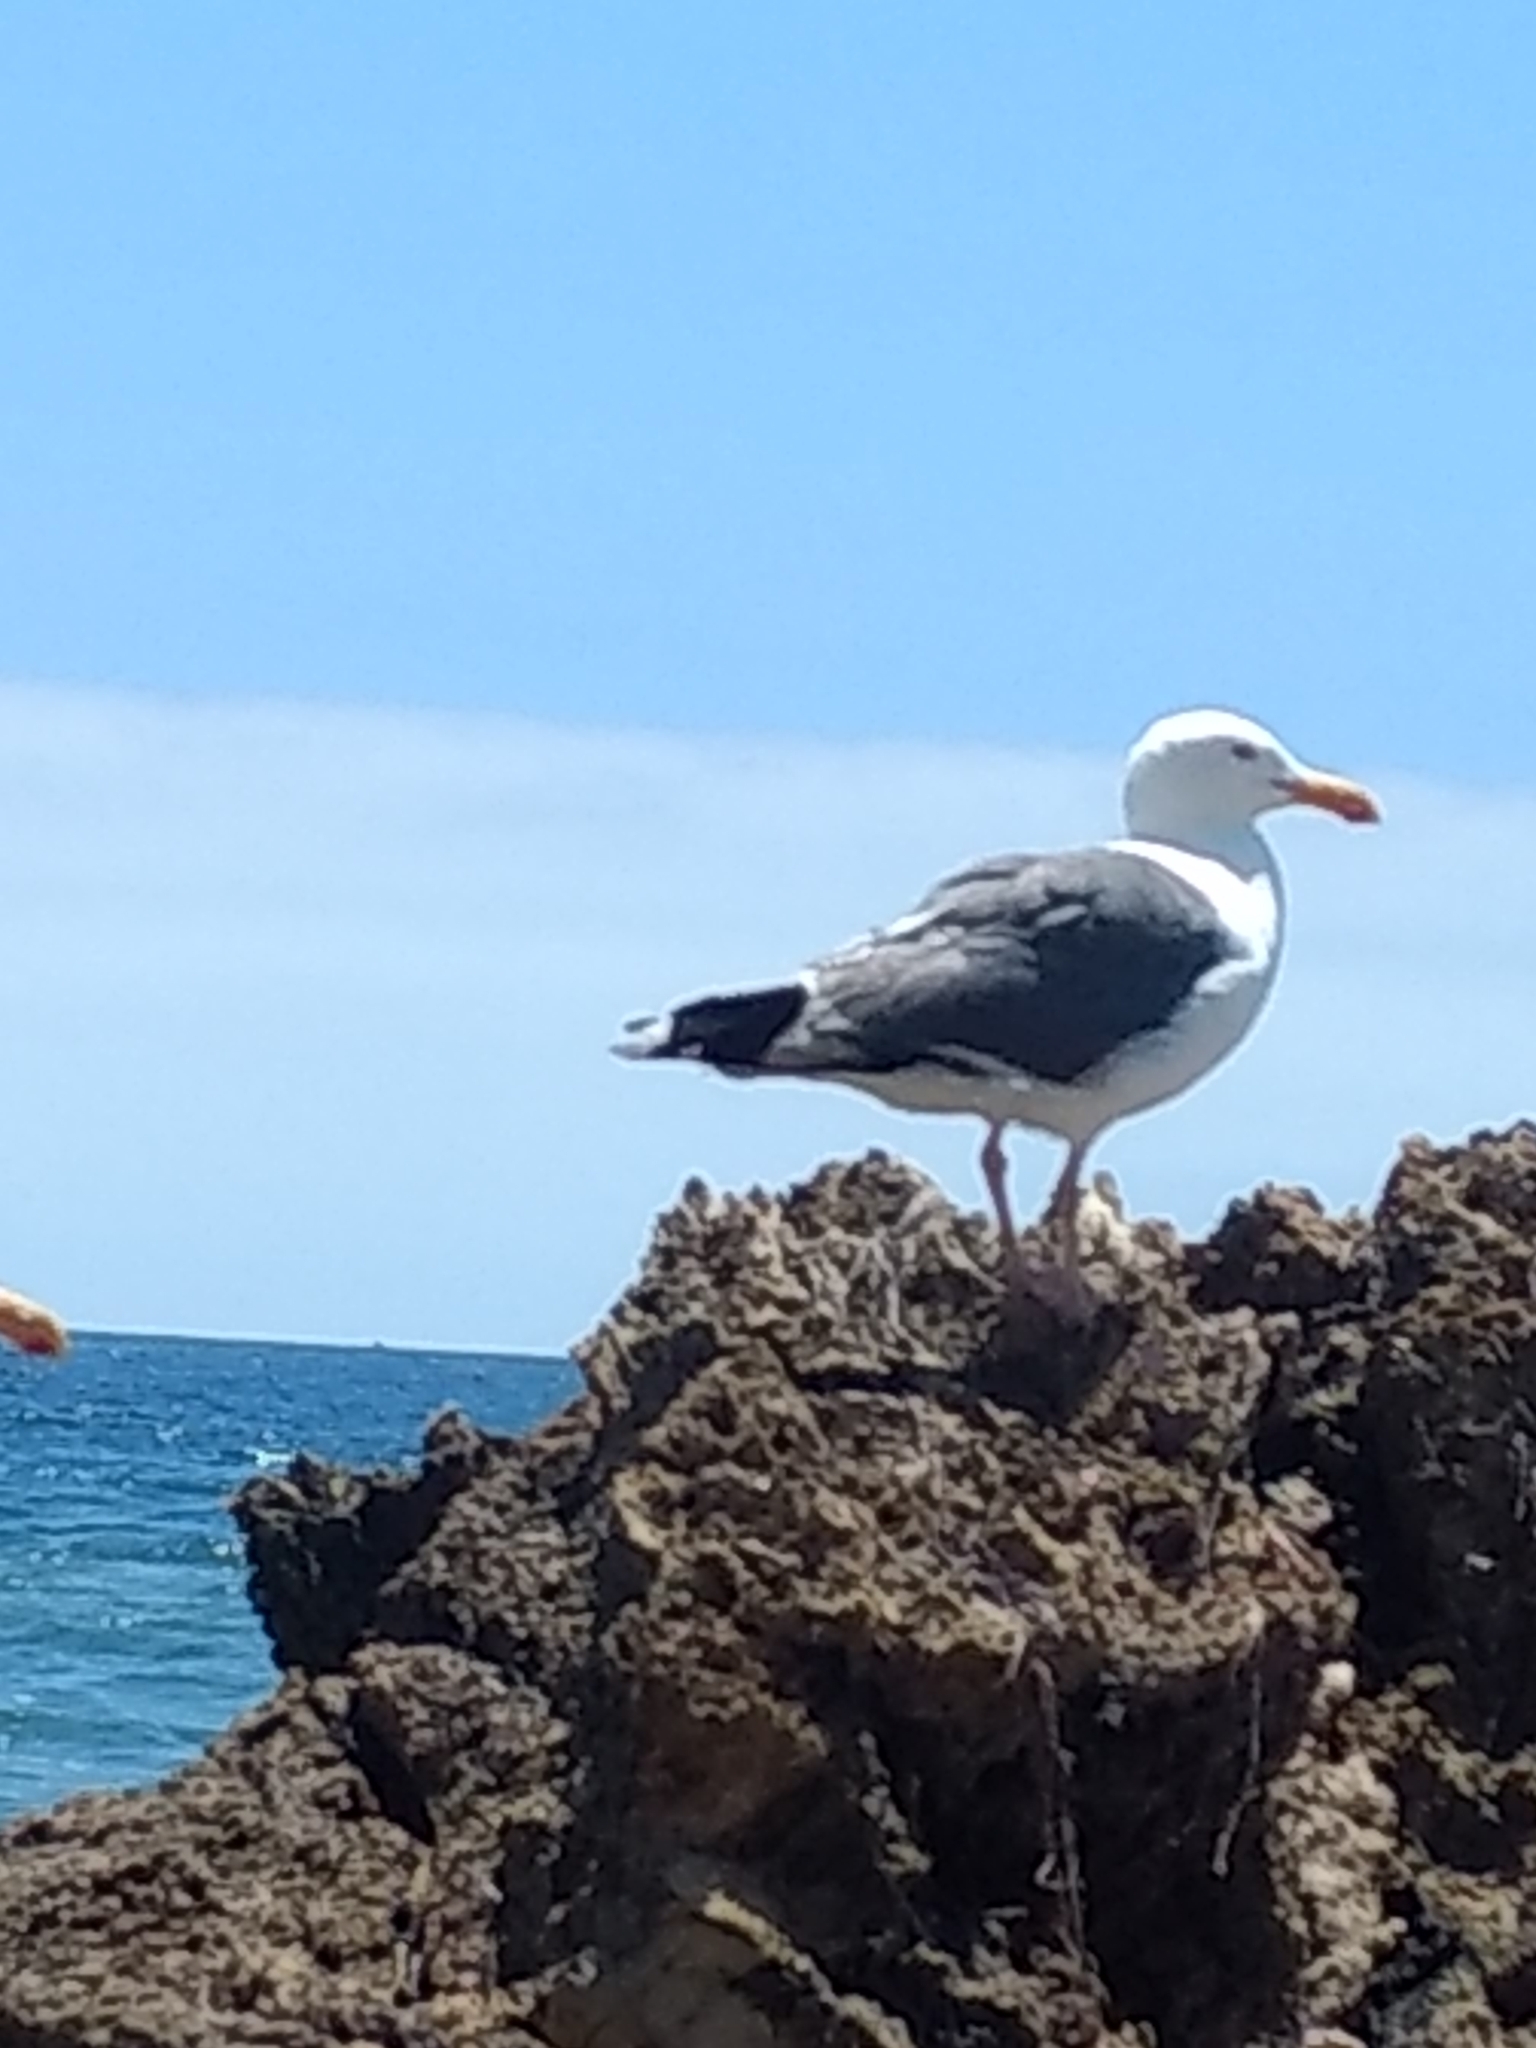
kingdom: Animalia
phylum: Chordata
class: Aves
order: Charadriiformes
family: Laridae
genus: Larus
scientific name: Larus occidentalis
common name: Western gull
